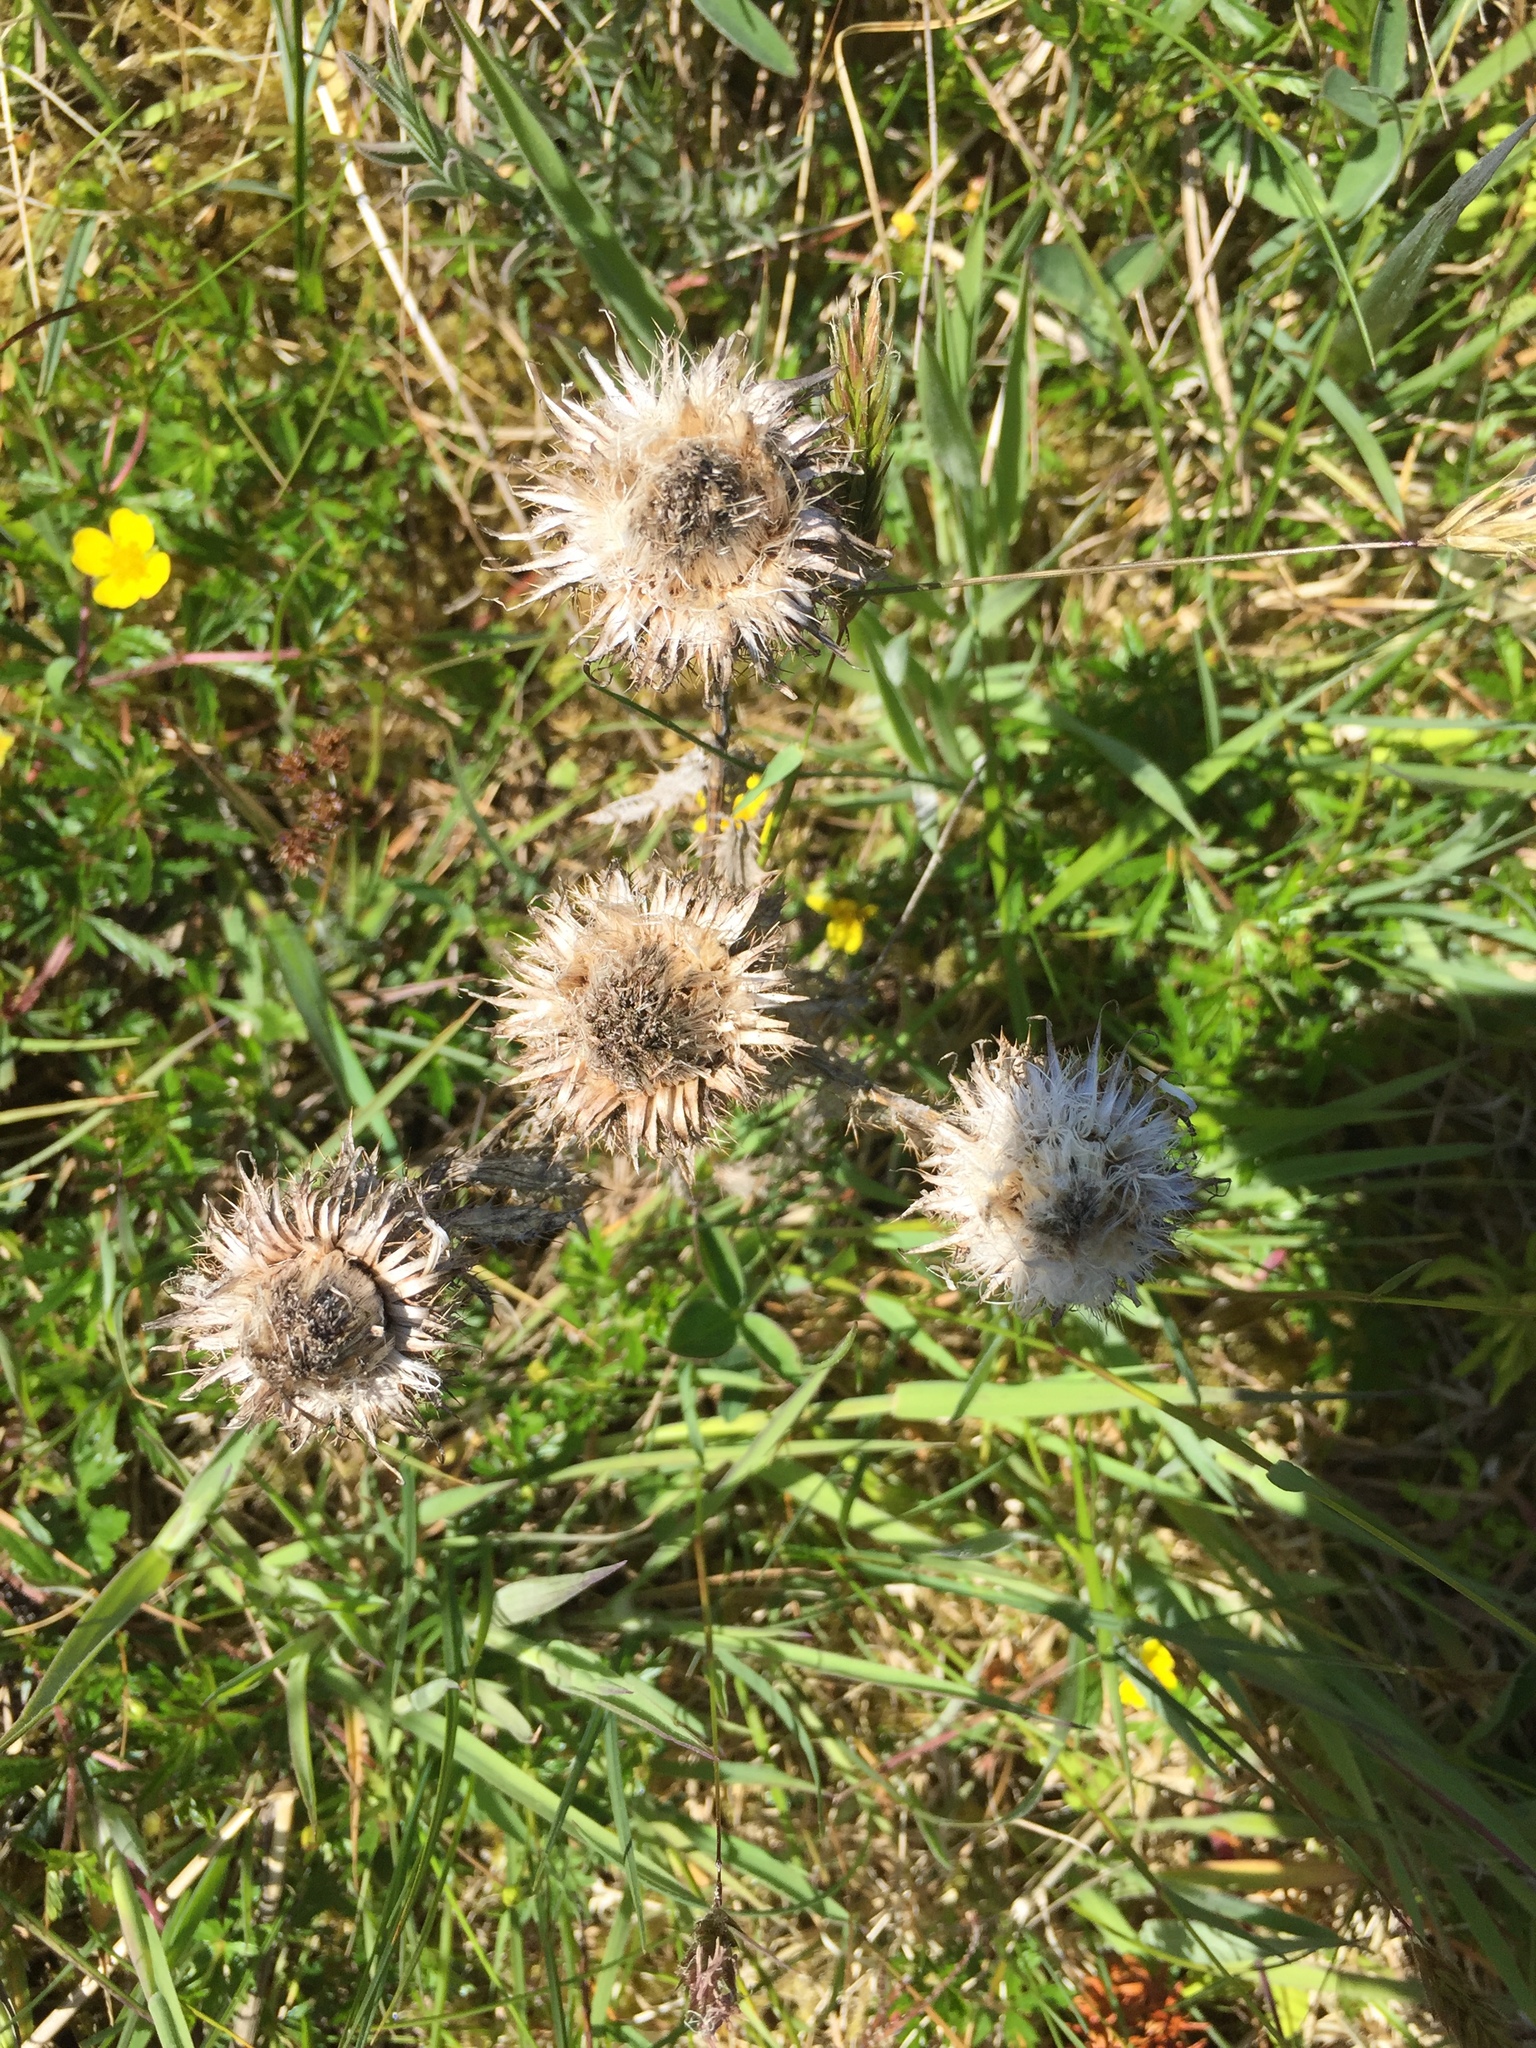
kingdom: Plantae
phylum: Tracheophyta
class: Magnoliopsida
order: Asterales
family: Asteraceae
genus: Carlina
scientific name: Carlina vulgaris
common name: Carline thistle
